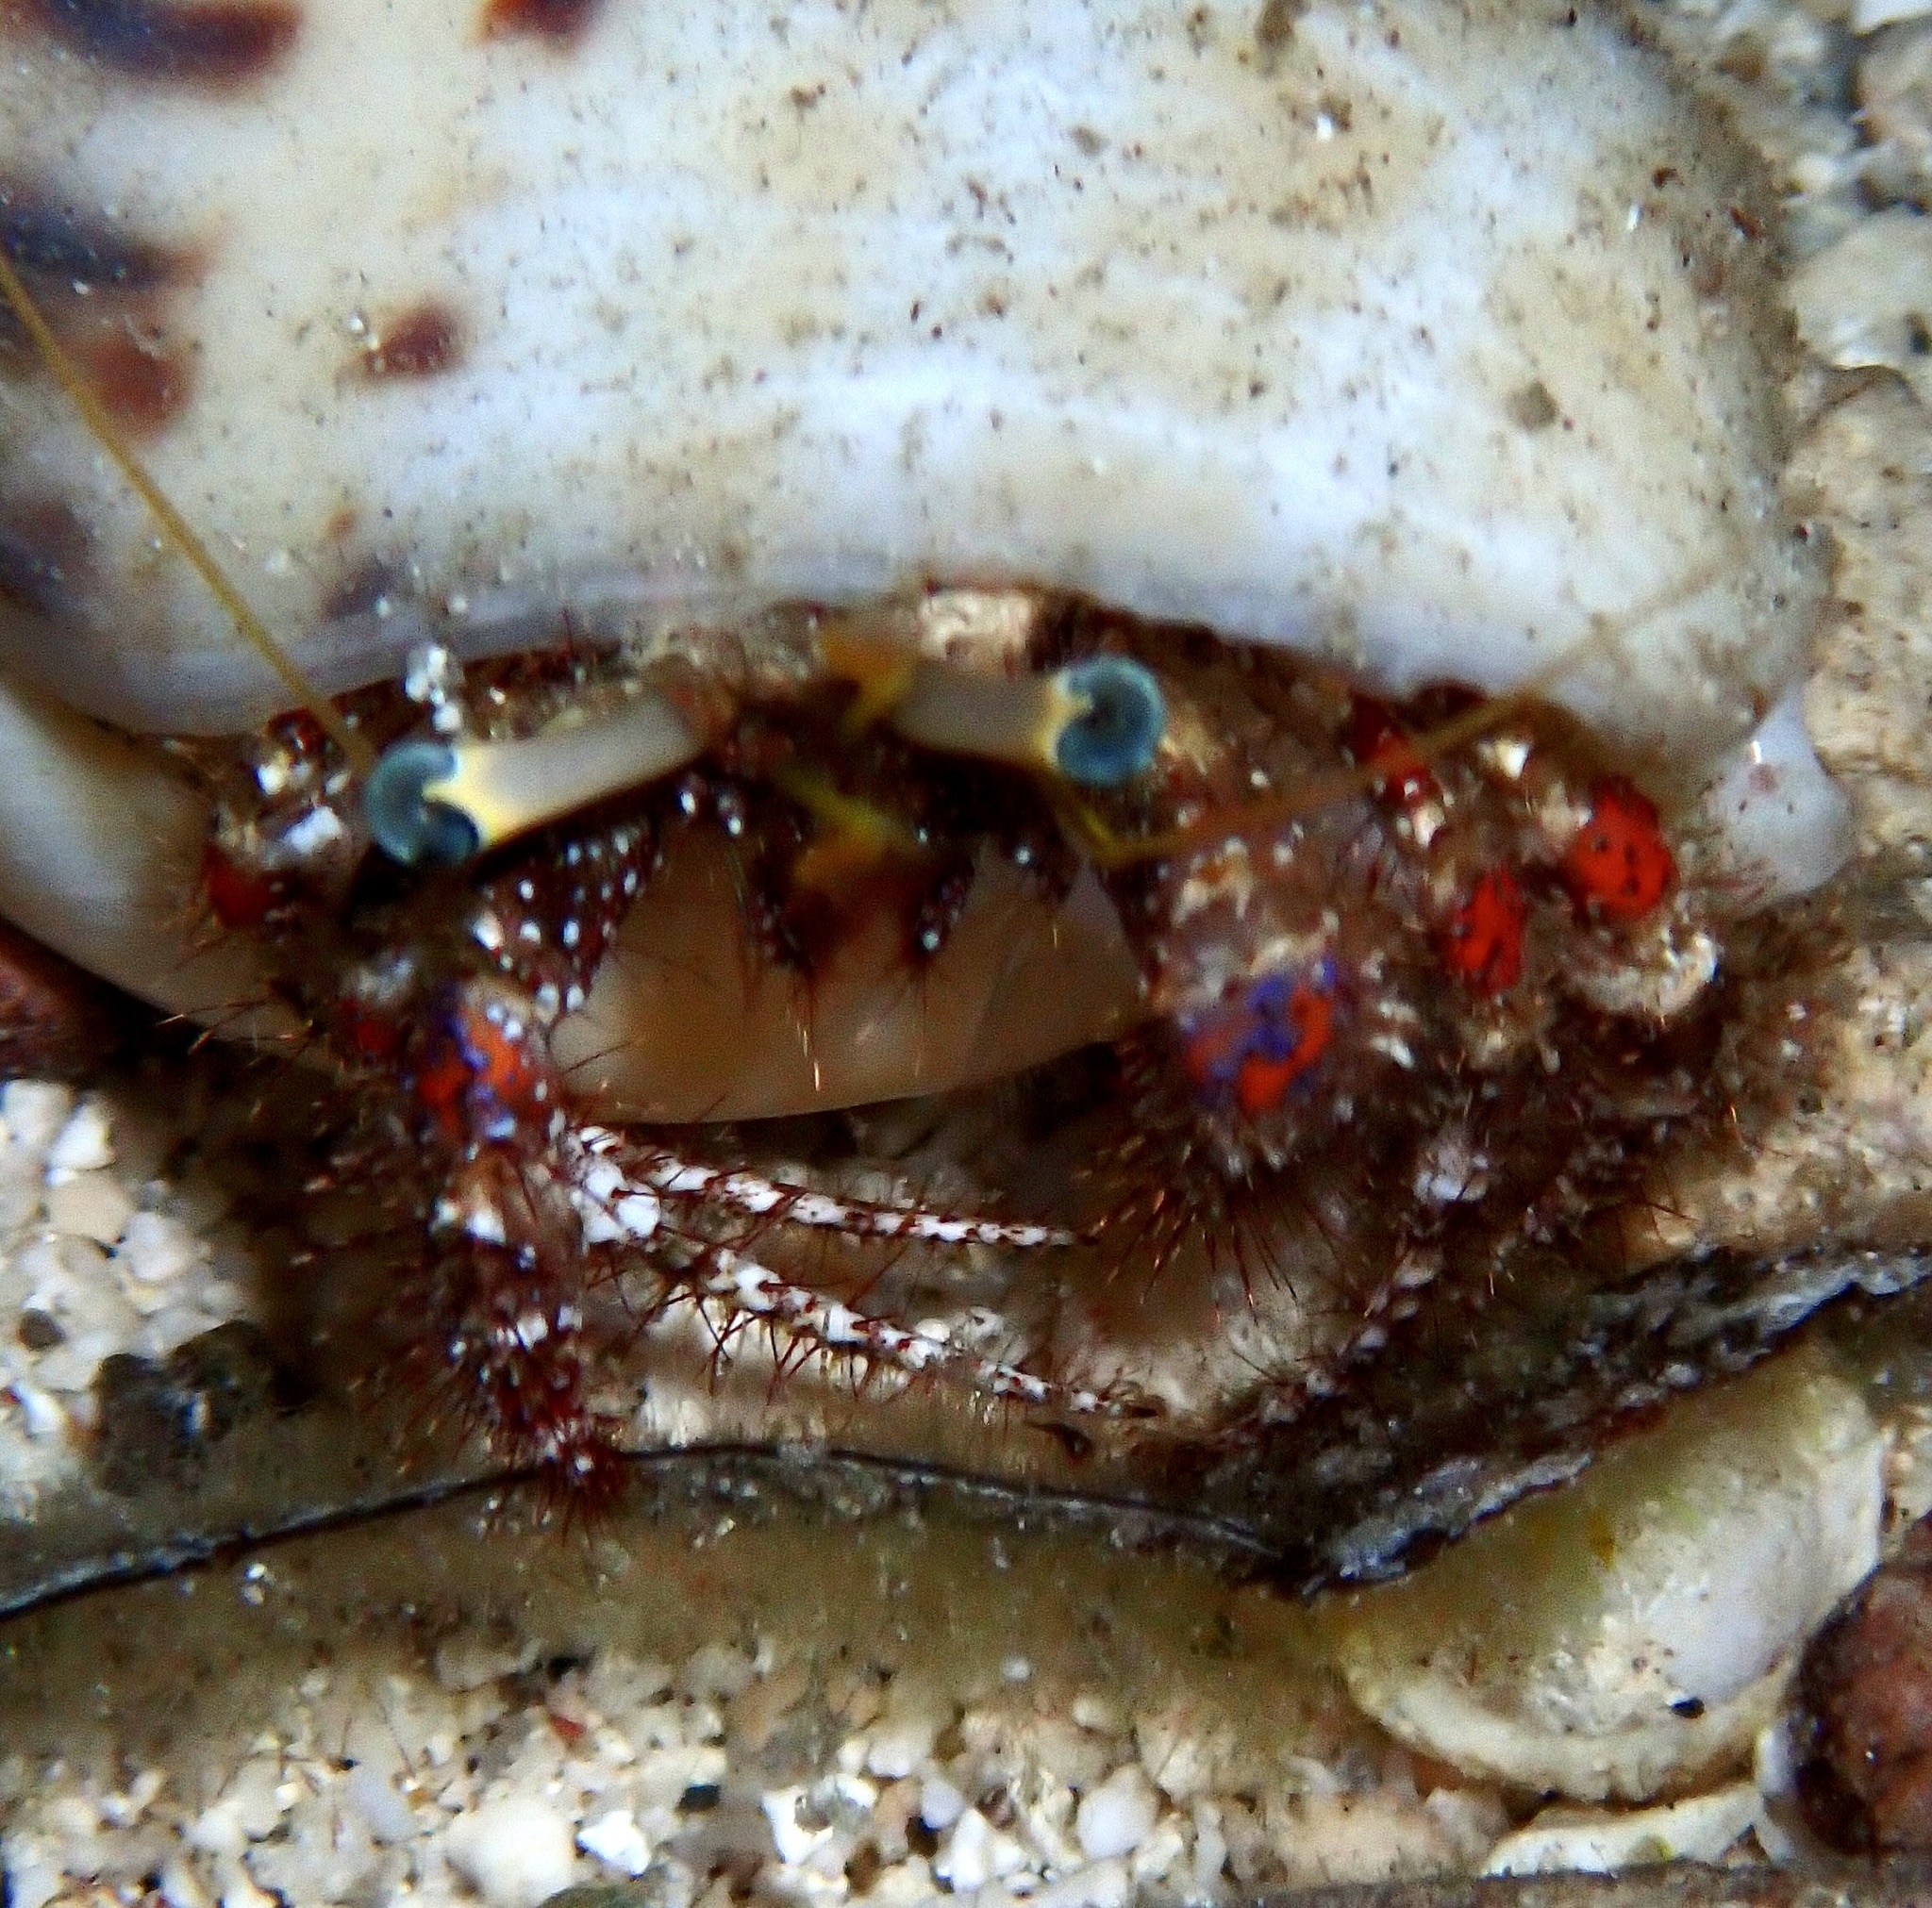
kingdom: Animalia
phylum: Arthropoda
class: Malacostraca
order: Decapoda
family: Diogenidae
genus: Dardanus
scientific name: Dardanus sanguinolentus
